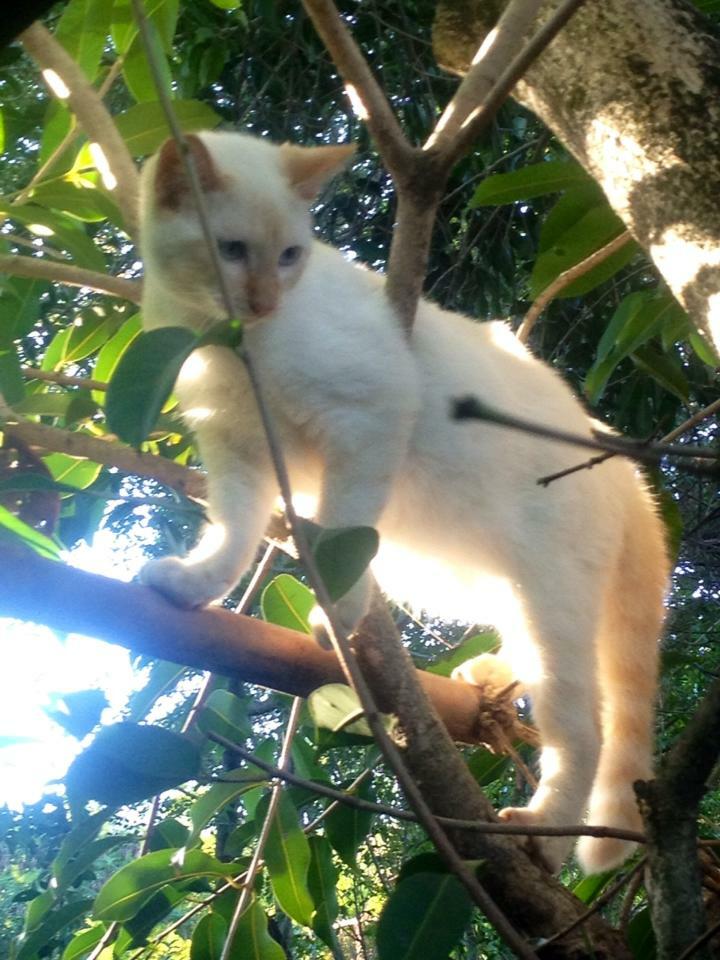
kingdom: Animalia
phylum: Chordata
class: Mammalia
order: Carnivora
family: Felidae
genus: Felis
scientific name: Felis catus
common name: Domestic cat
